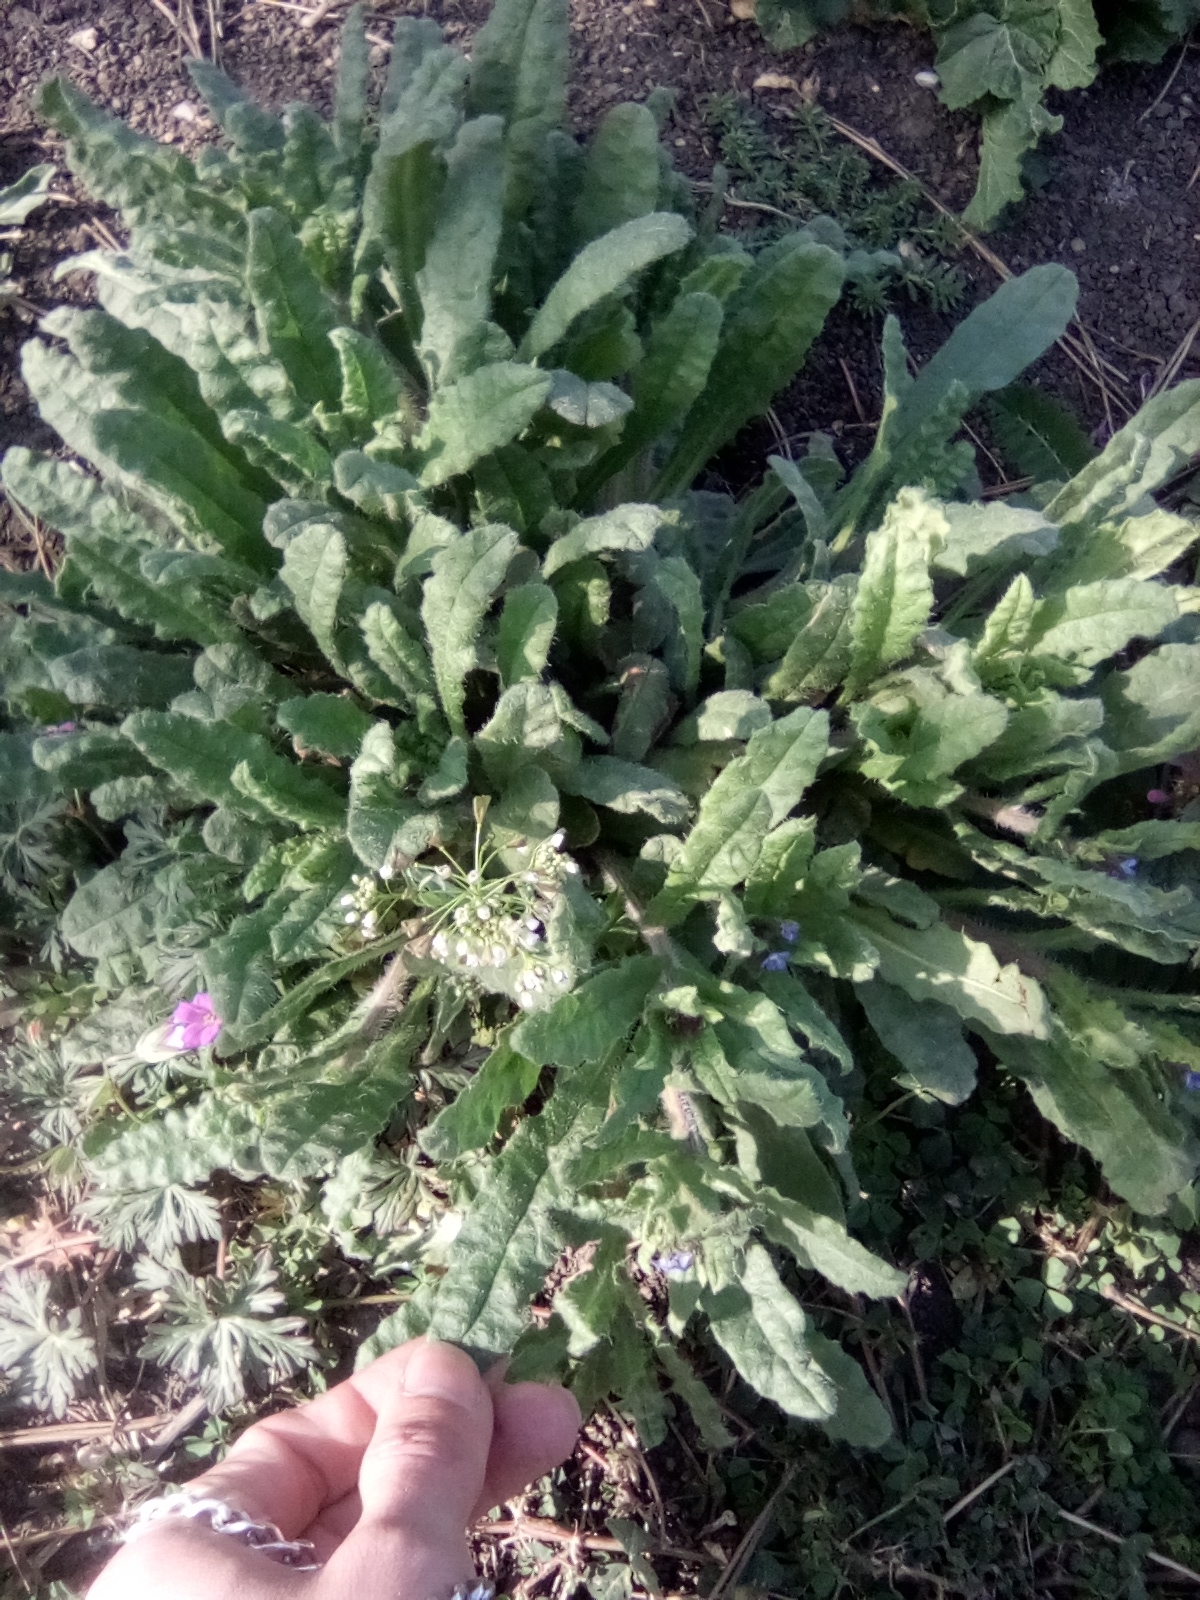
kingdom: Plantae
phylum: Tracheophyta
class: Magnoliopsida
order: Boraginales
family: Boraginaceae
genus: Lycopsis
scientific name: Lycopsis arvensis
